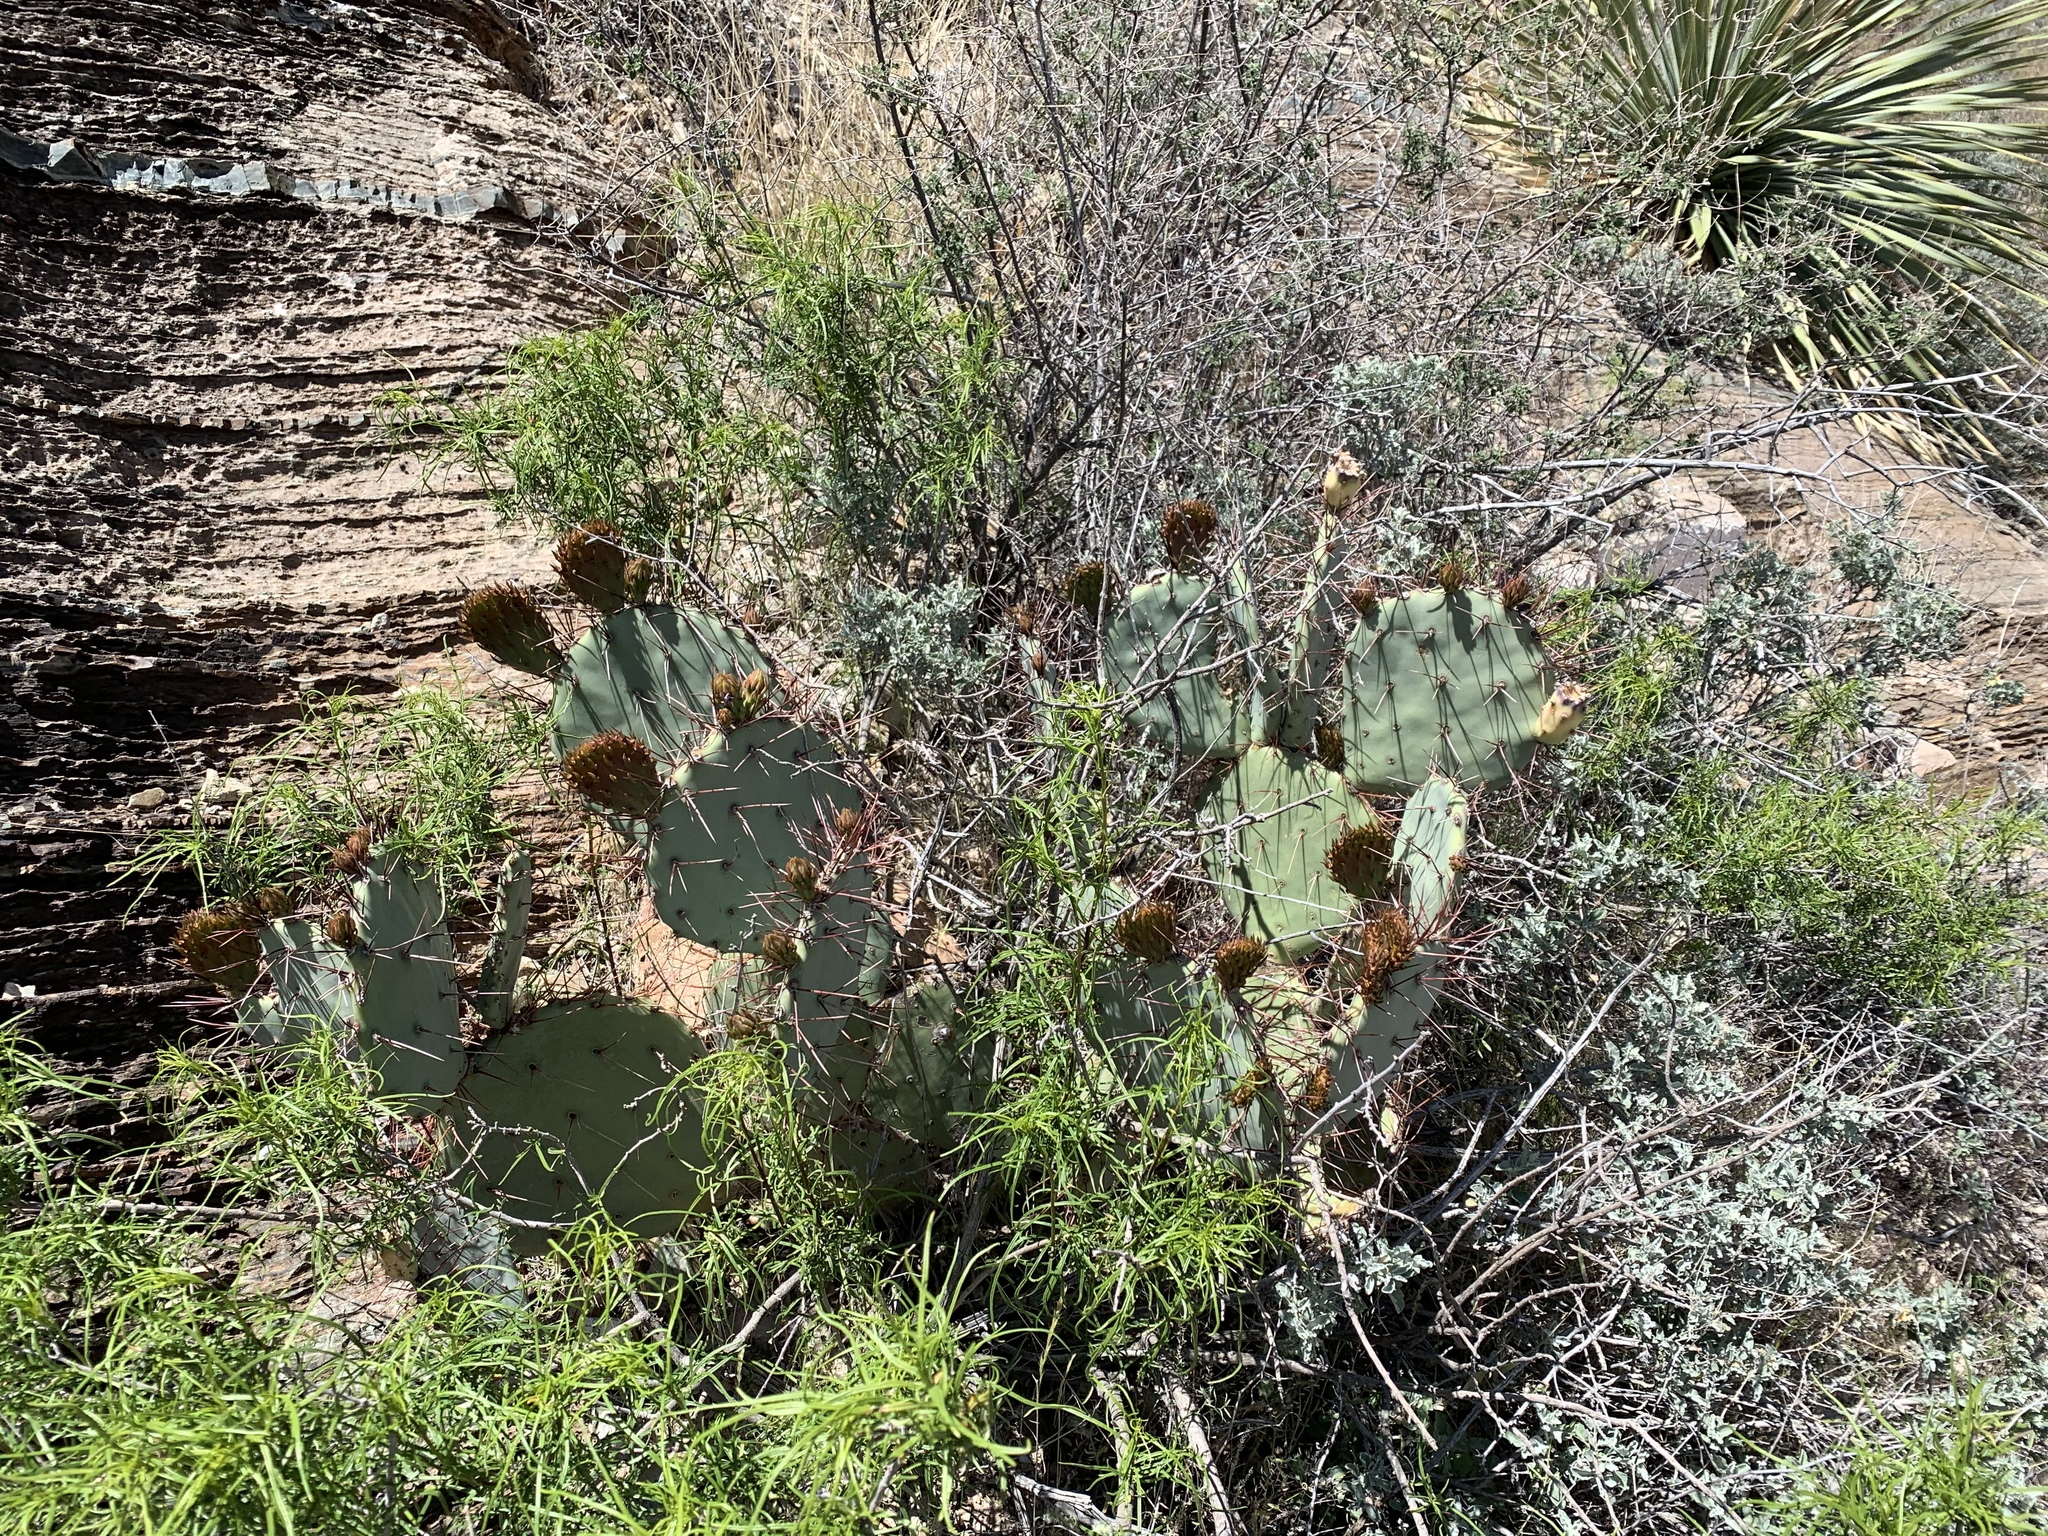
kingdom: Plantae
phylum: Tracheophyta
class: Magnoliopsida
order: Caryophyllales
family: Cactaceae
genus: Opuntia
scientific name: Opuntia engelmannii
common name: Cactus-apple
